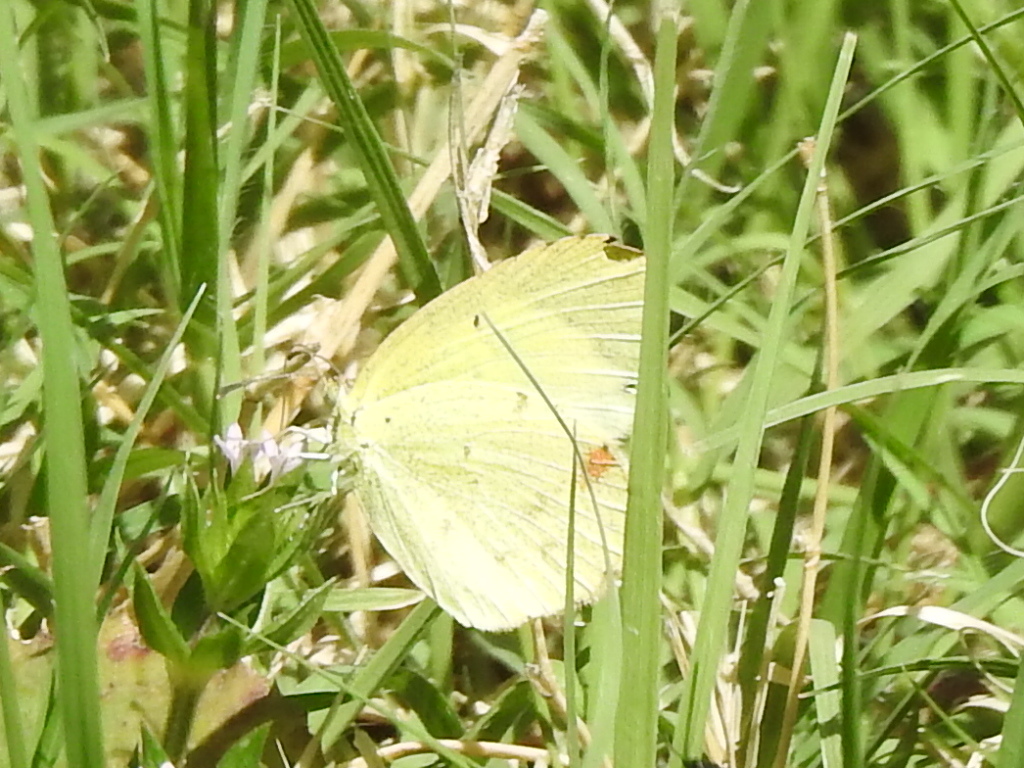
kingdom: Animalia
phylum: Arthropoda
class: Insecta
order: Lepidoptera
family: Pieridae
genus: Pyrisitia
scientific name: Pyrisitia lisa
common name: Little yellow
